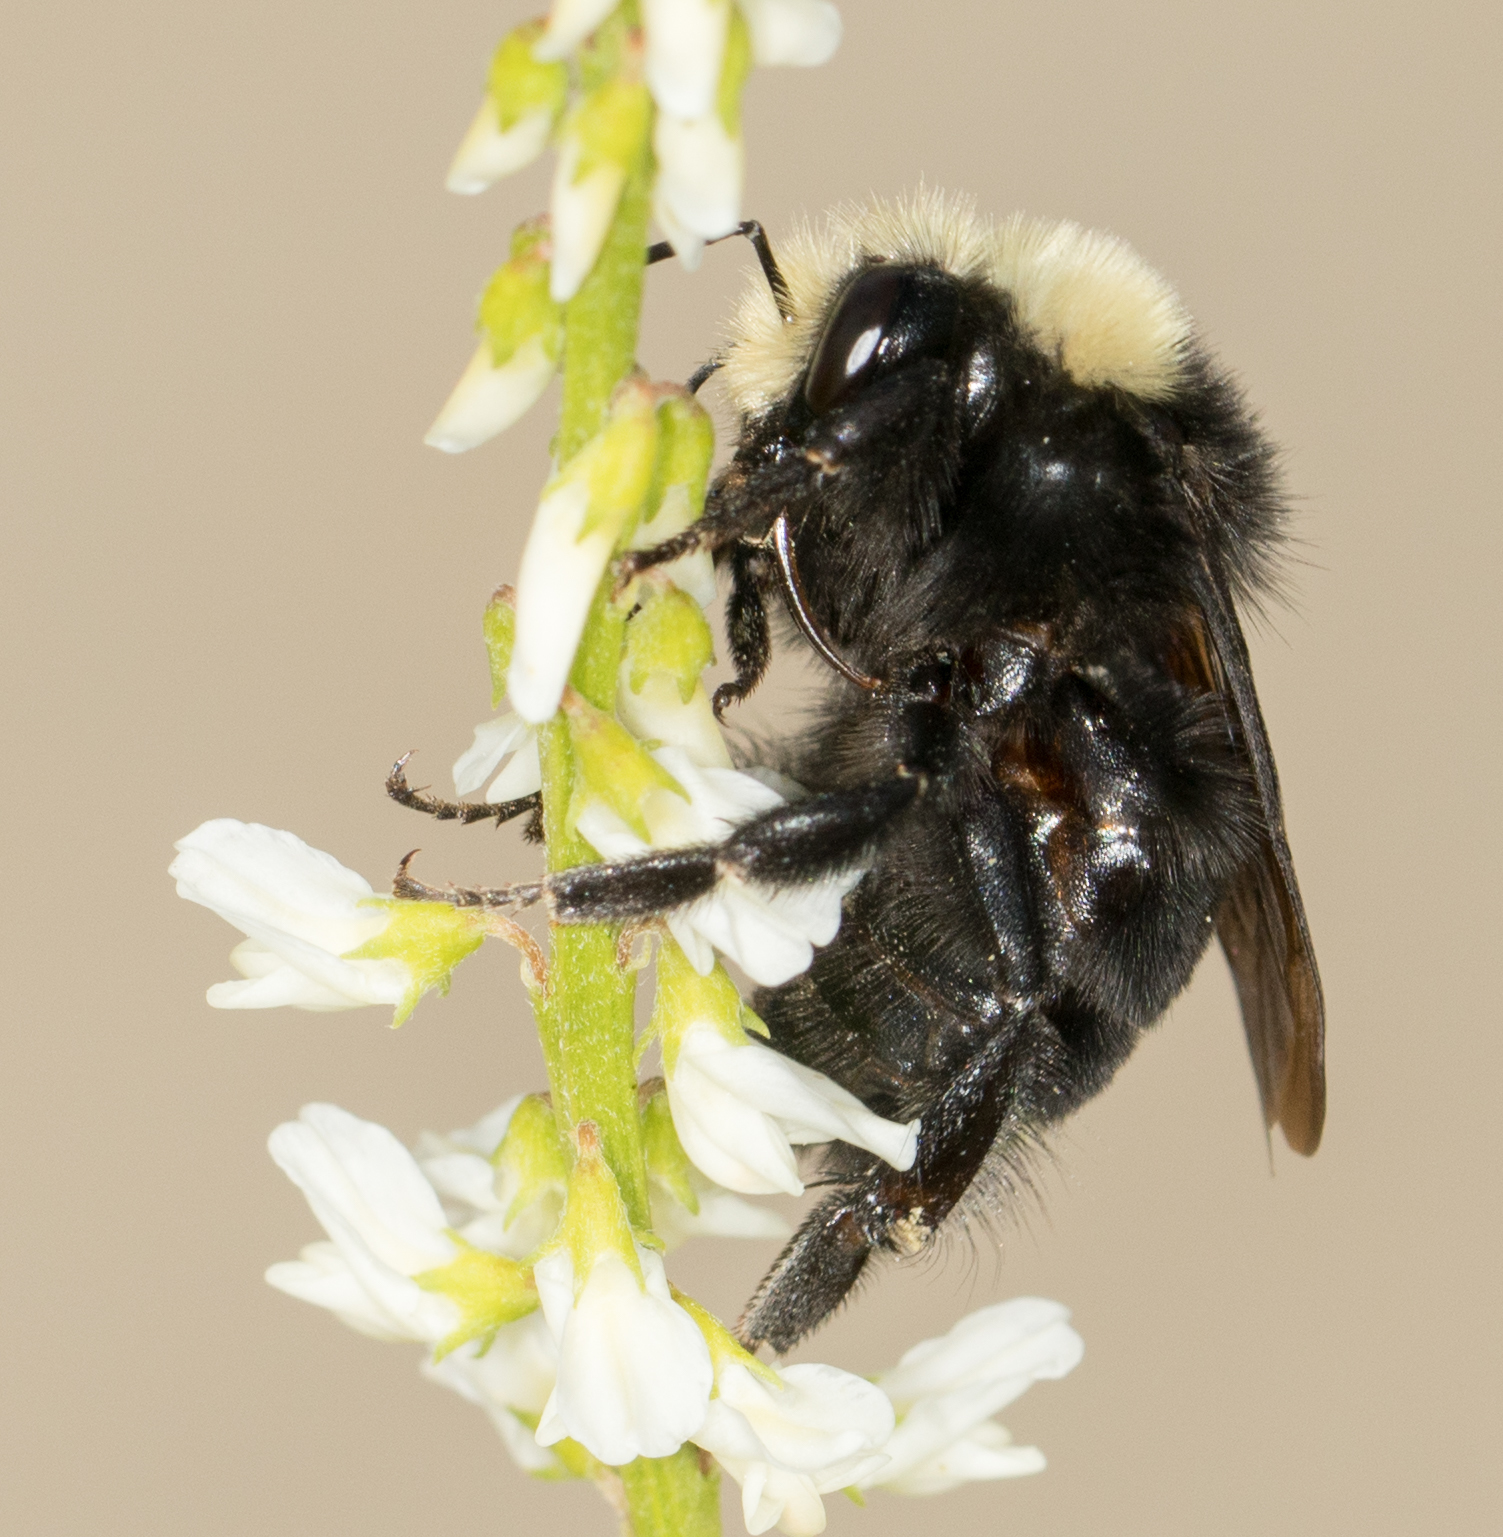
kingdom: Animalia
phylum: Arthropoda
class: Insecta
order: Hymenoptera
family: Apidae
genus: Bombus
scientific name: Bombus vosnesenskii
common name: Vosnesensky bumble bee
